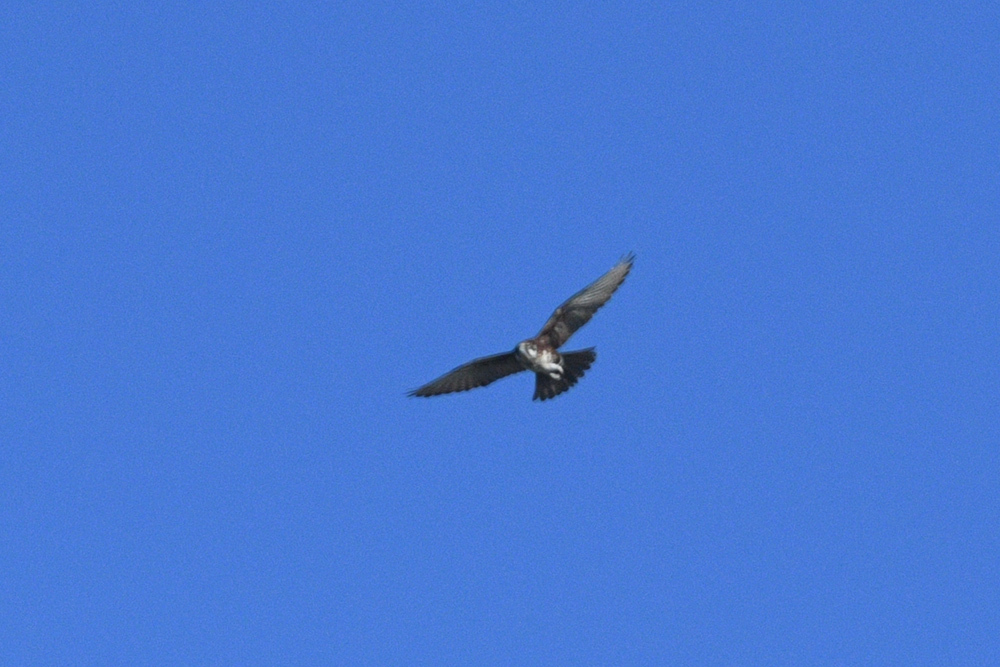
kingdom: Animalia
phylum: Chordata
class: Aves
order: Falconiformes
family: Falconidae
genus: Falco
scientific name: Falco berigora
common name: Brown falcon
